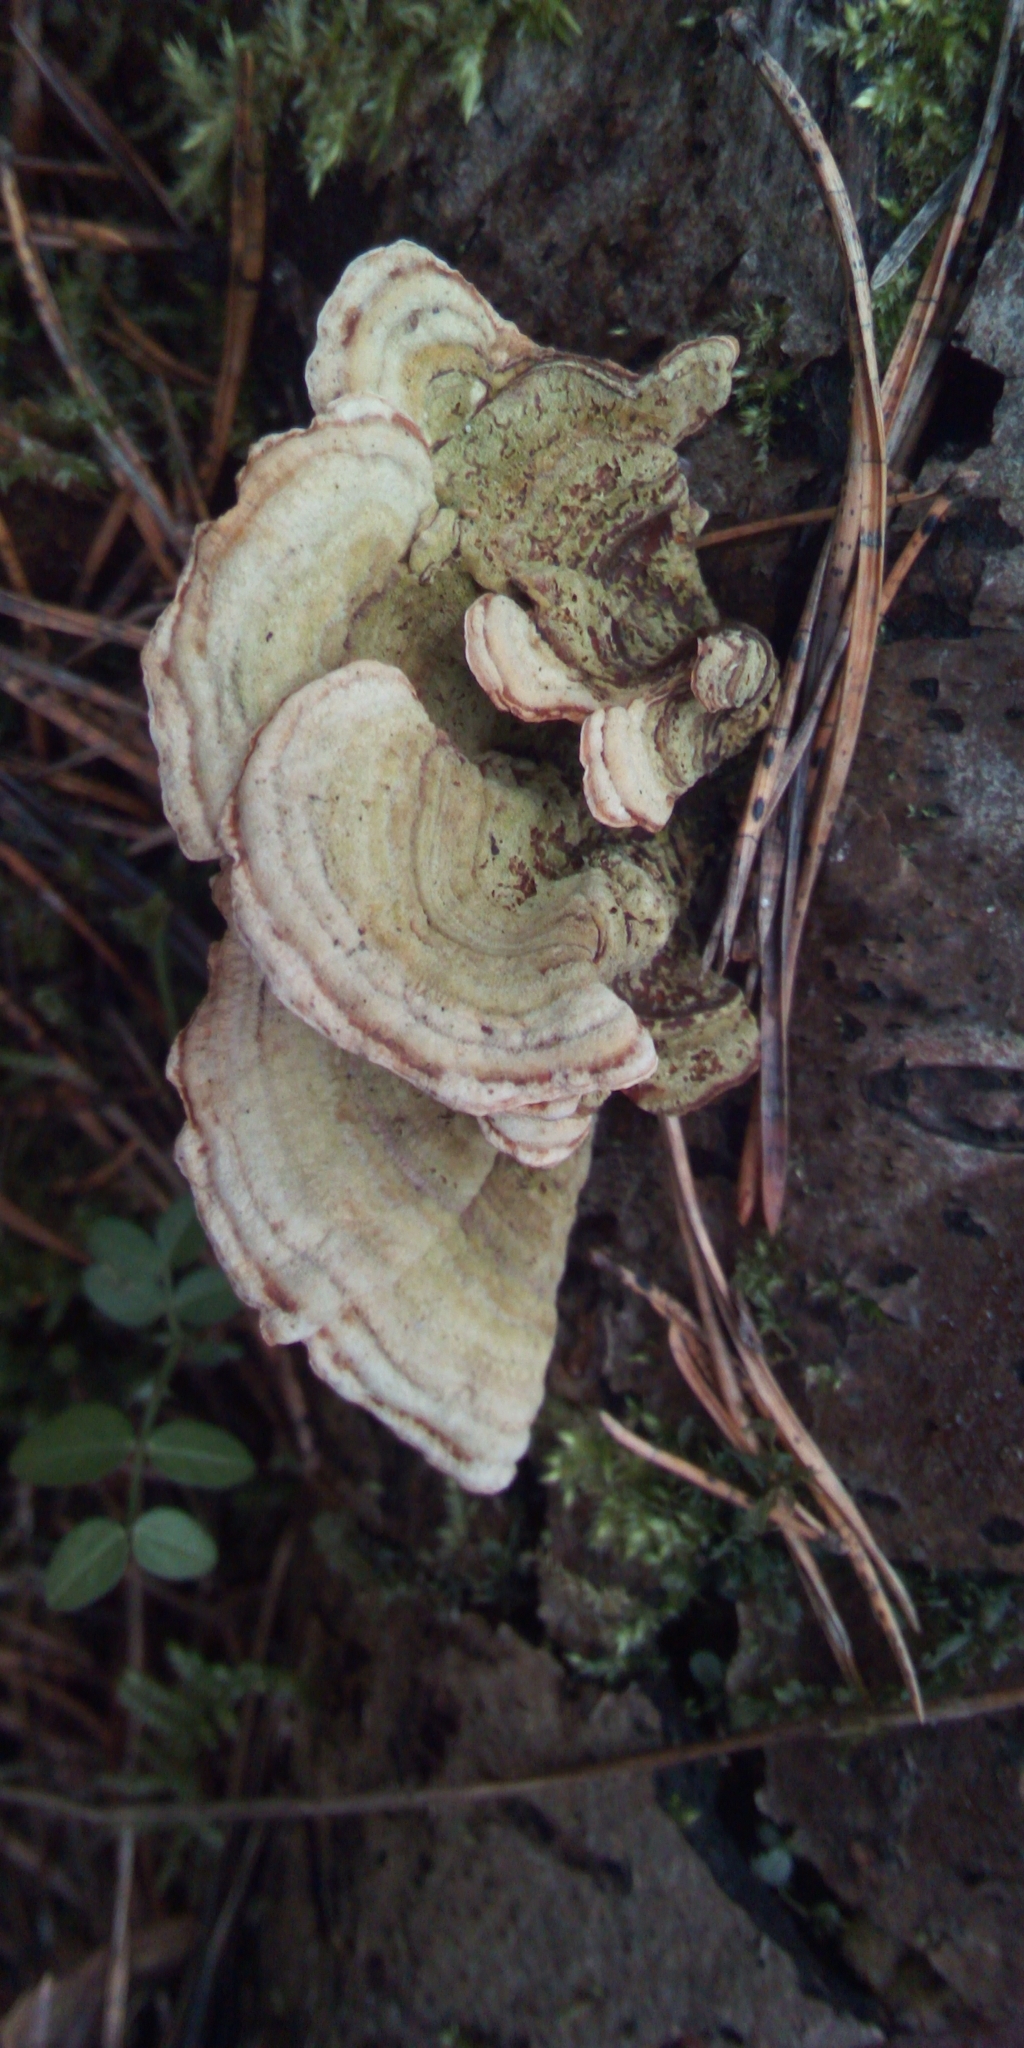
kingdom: Fungi
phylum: Basidiomycota
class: Agaricomycetes
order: Russulales
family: Stereaceae
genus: Stereum
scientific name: Stereum
